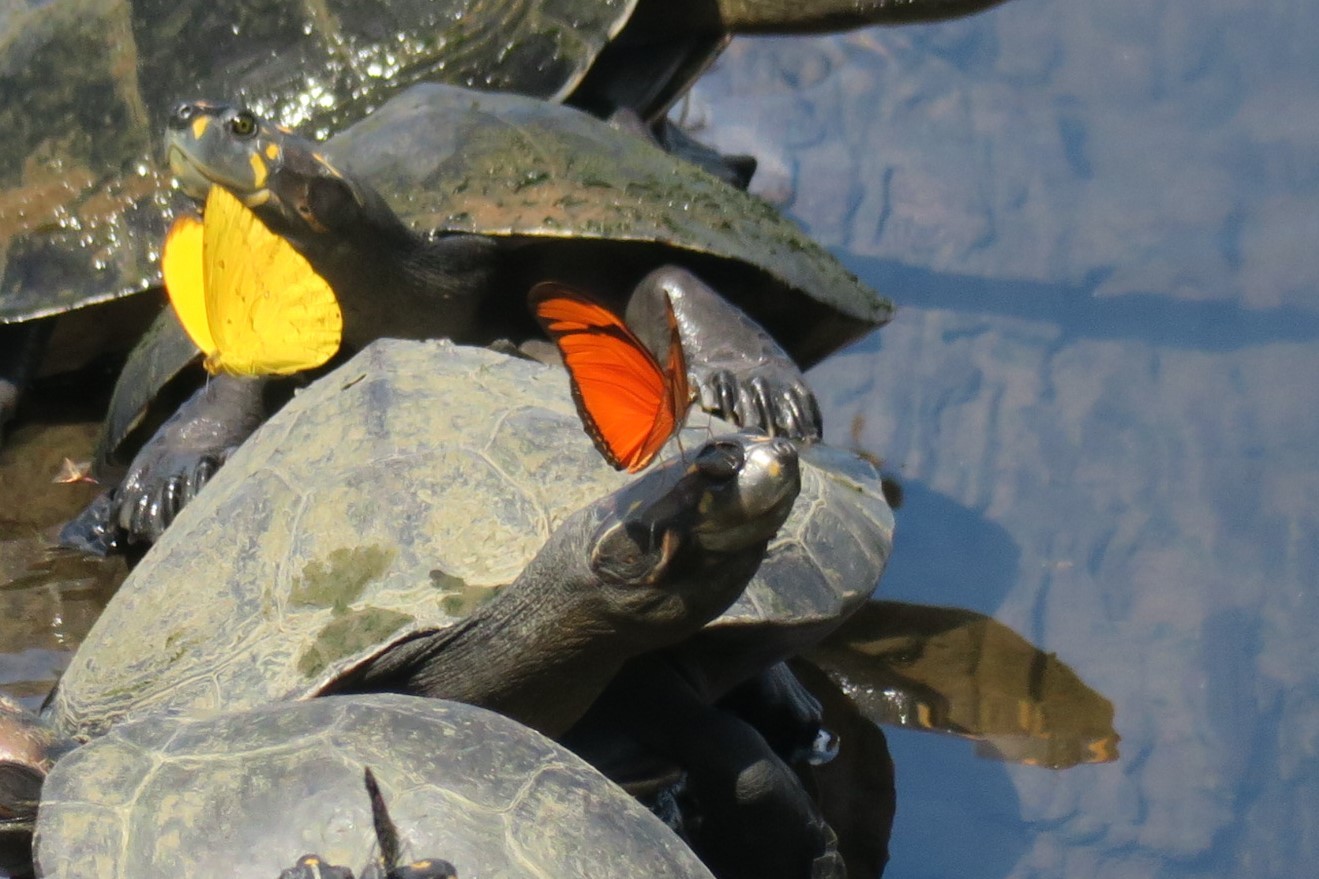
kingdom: Animalia
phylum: Arthropoda
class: Insecta
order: Lepidoptera
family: Nymphalidae
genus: Dryas
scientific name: Dryas iulia
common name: Flambeau
